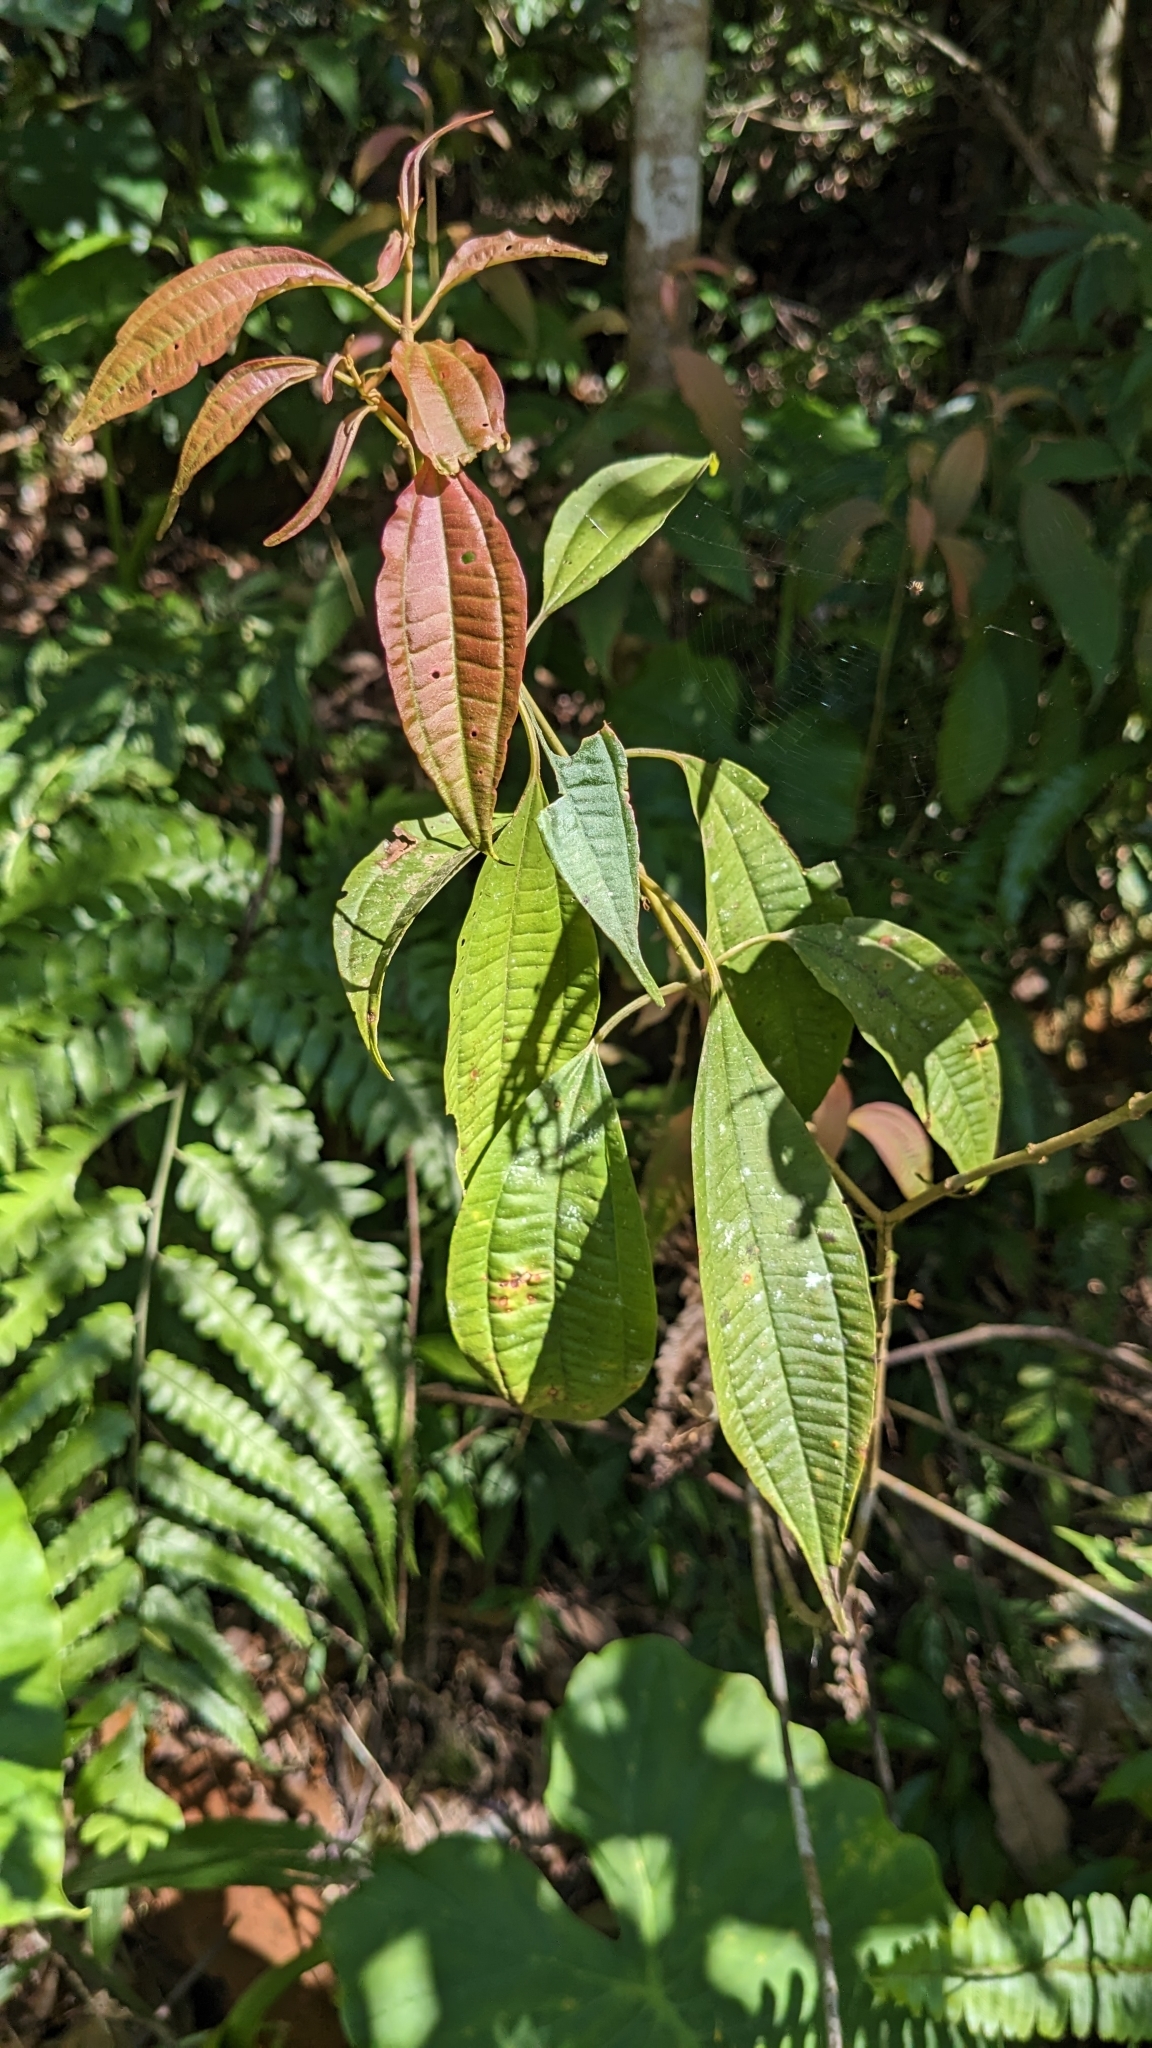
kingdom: Plantae
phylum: Tracheophyta
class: Magnoliopsida
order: Myrtales
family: Melastomataceae
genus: Blastus
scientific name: Blastus cochinchinensis
